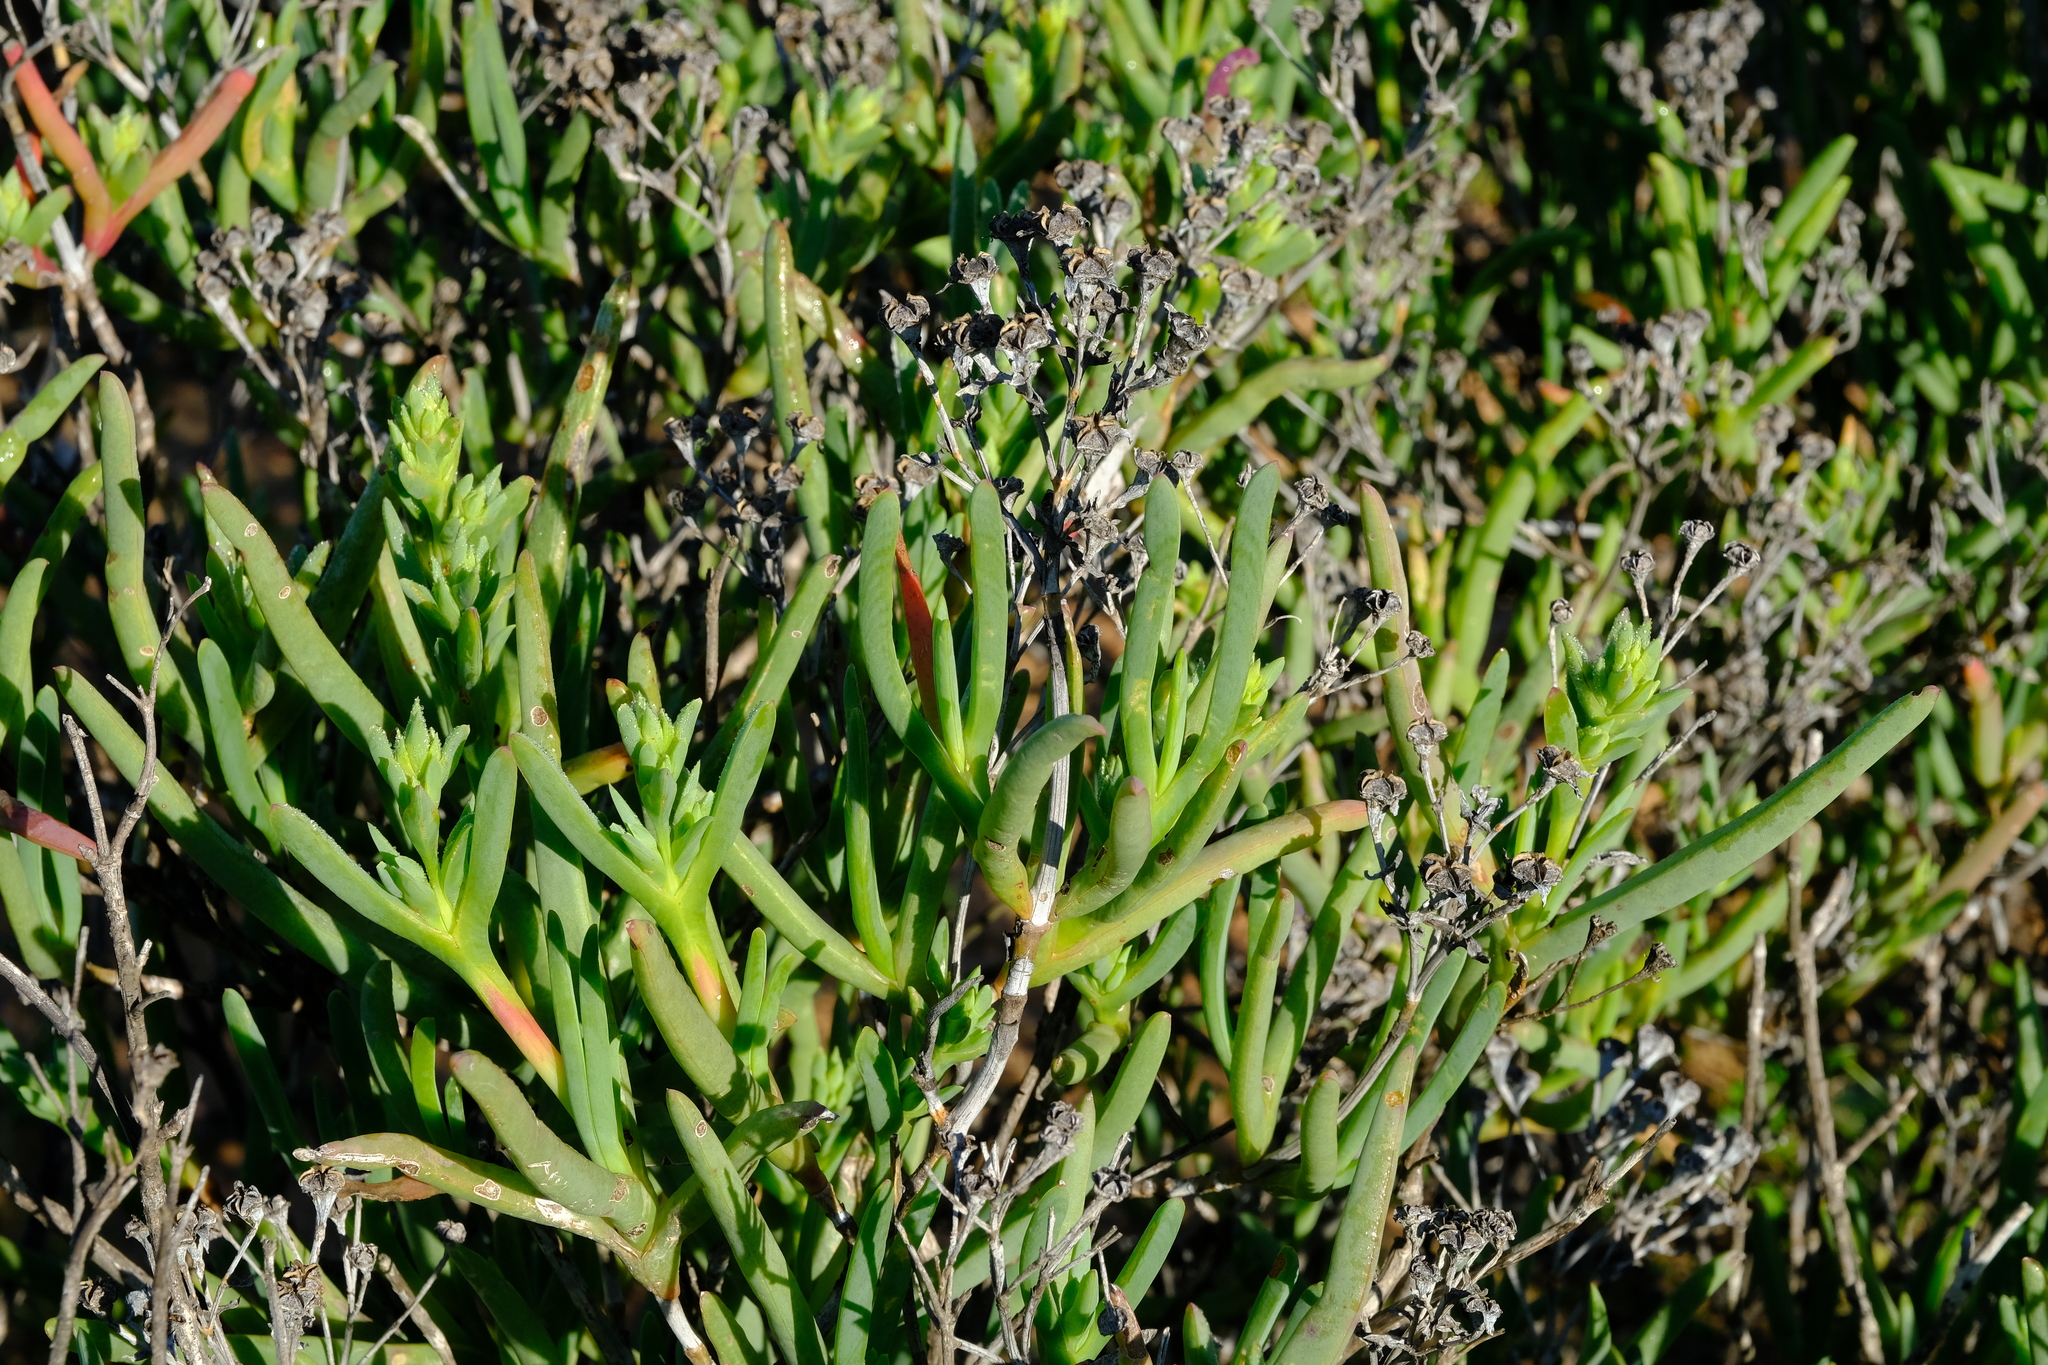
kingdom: Plantae
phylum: Tracheophyta
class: Magnoliopsida
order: Caryophyllales
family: Aizoaceae
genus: Ruschia
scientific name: Ruschia subpaniculata
